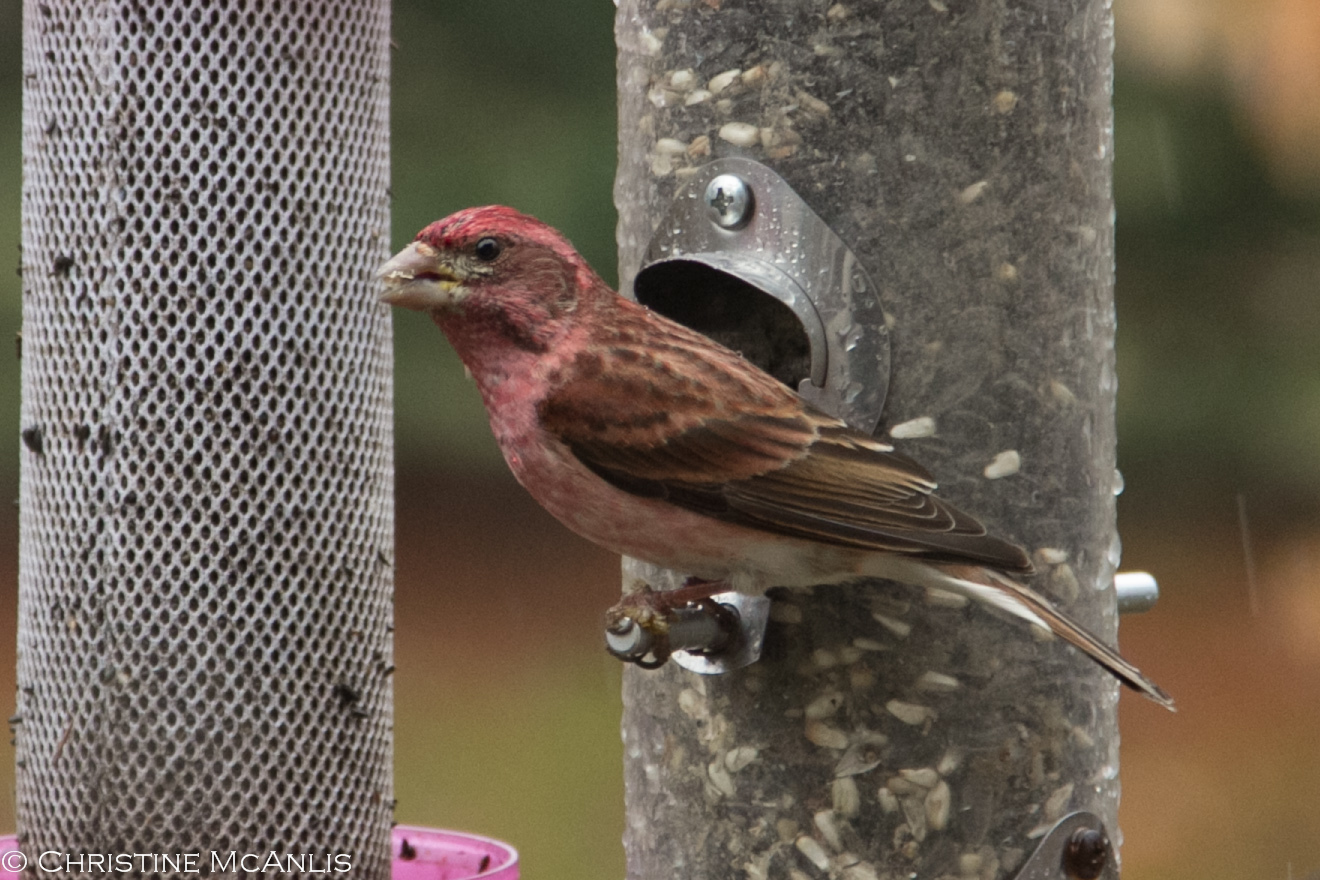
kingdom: Animalia
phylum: Chordata
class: Aves
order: Passeriformes
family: Fringillidae
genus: Haemorhous
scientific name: Haemorhous purpureus
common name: Purple finch
